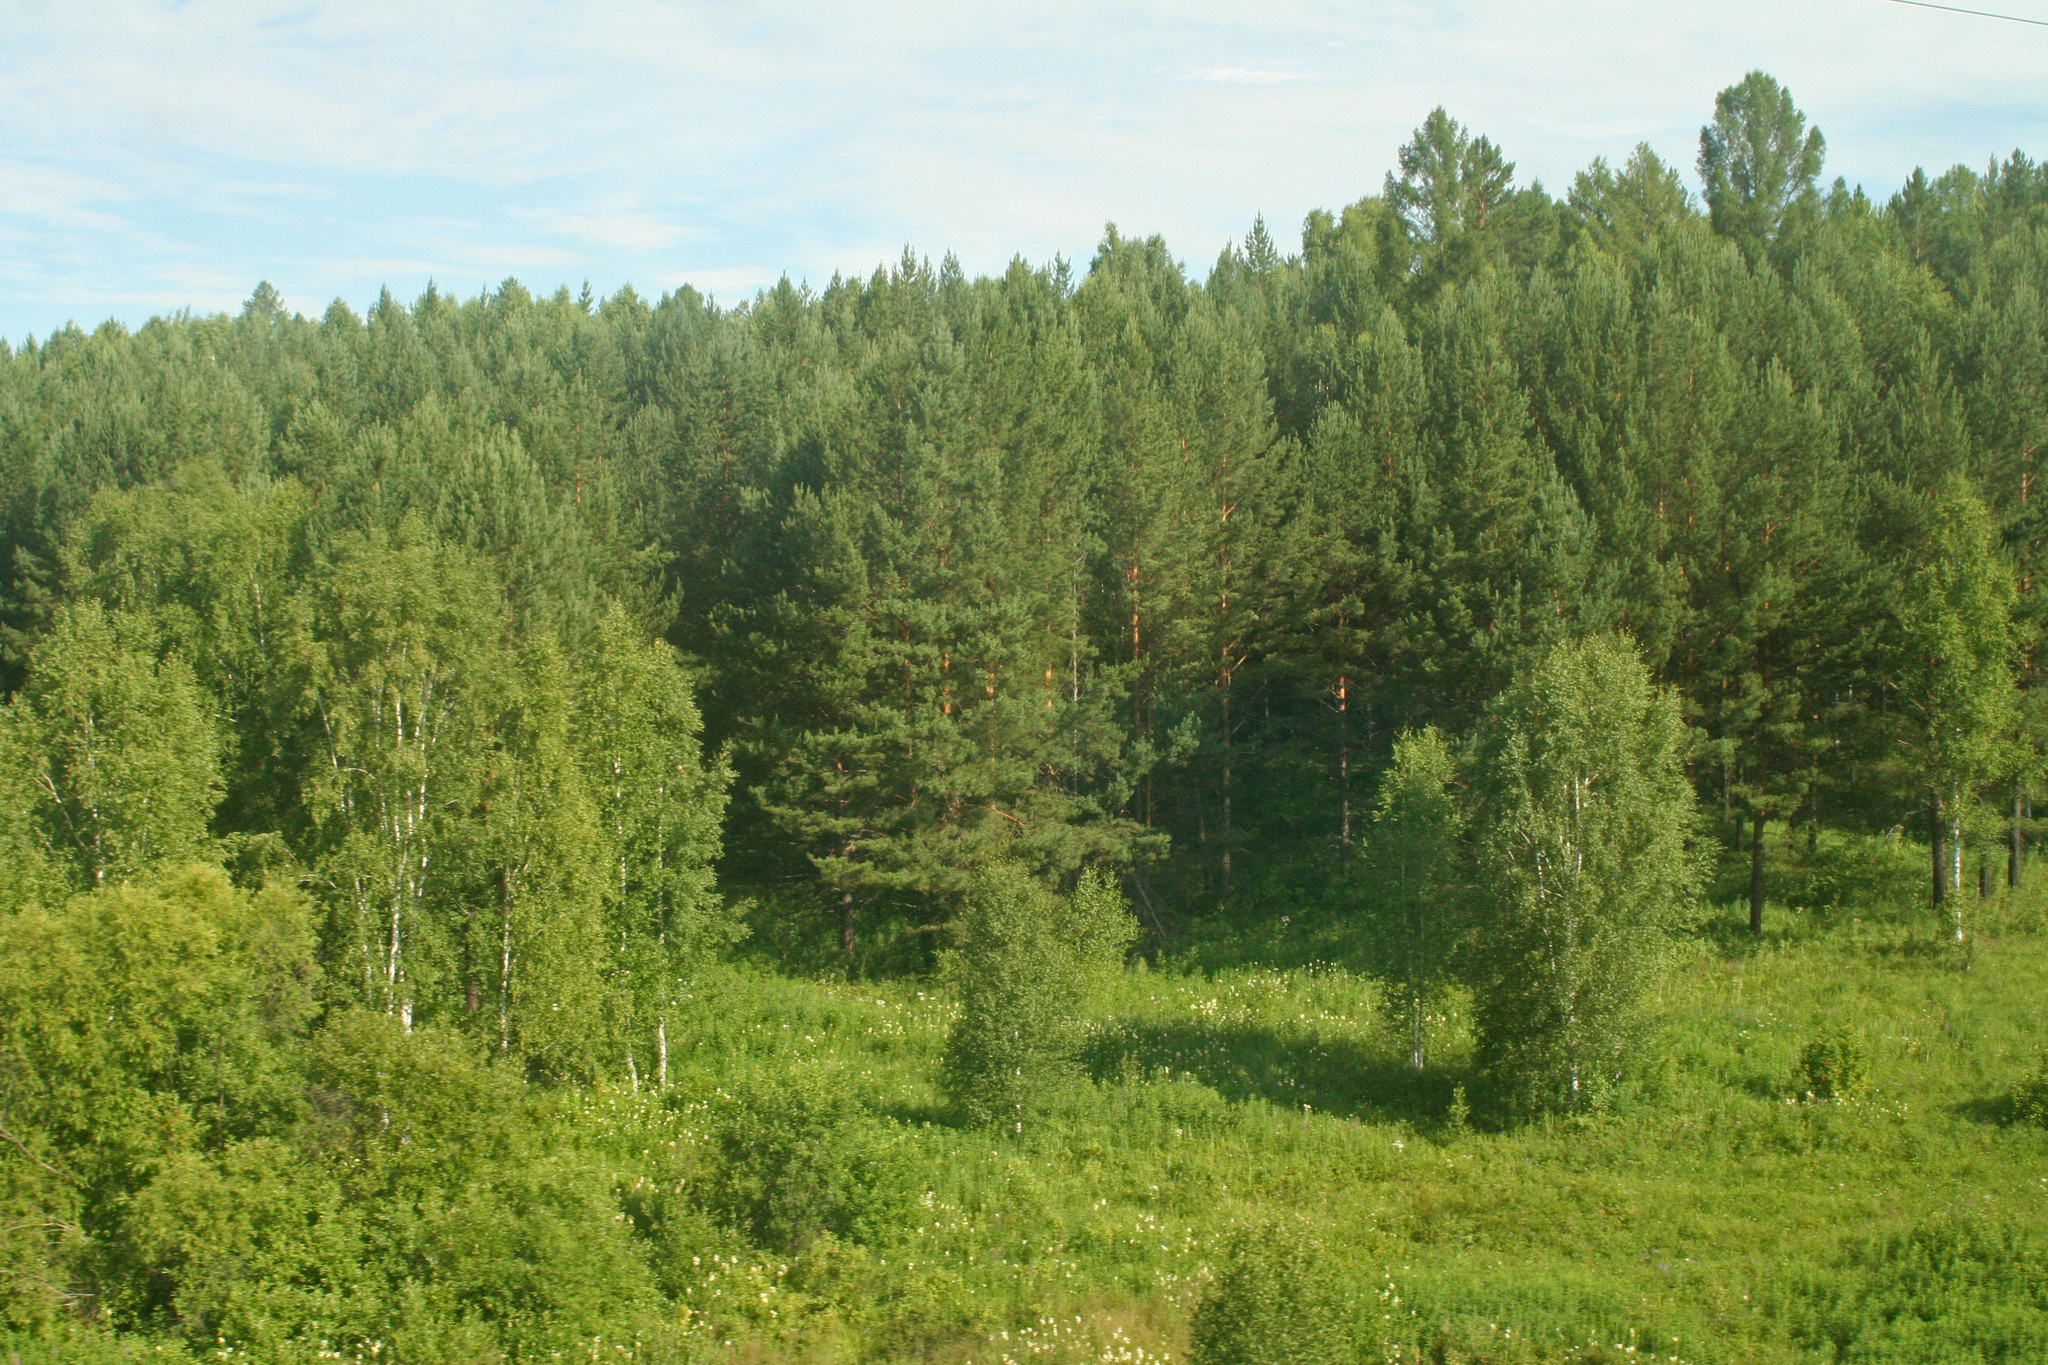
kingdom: Plantae
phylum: Tracheophyta
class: Pinopsida
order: Pinales
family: Pinaceae
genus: Pinus
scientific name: Pinus sylvestris
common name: Scots pine
